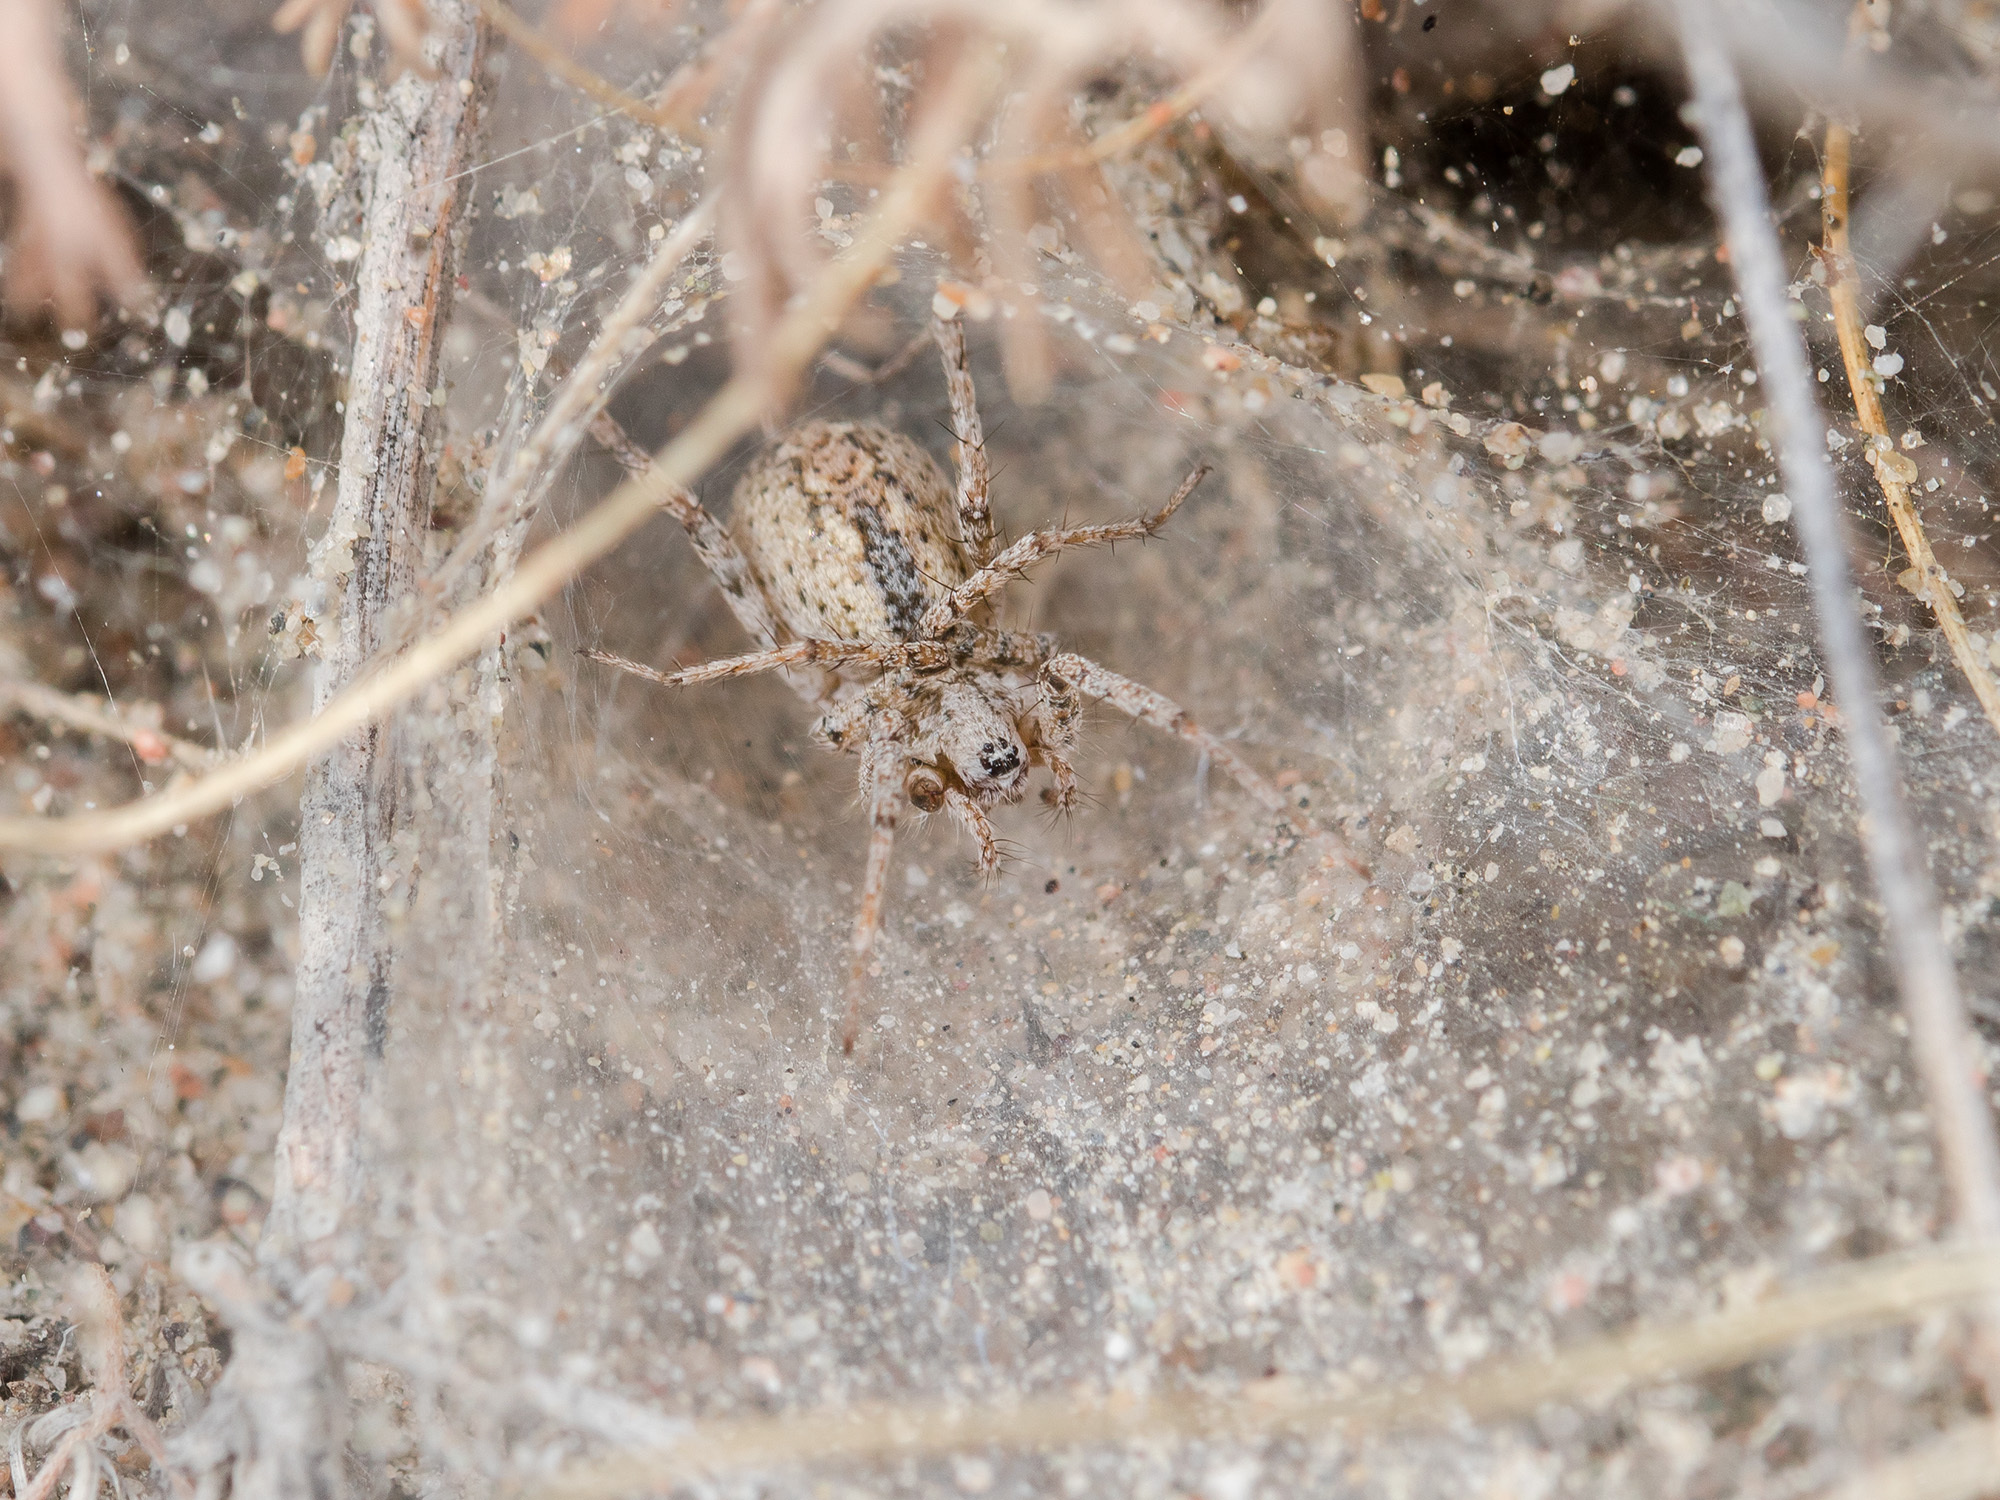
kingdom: Animalia
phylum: Arthropoda
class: Arachnida
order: Araneae
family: Agelenidae
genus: Benoitia
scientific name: Benoitia tadzhika
